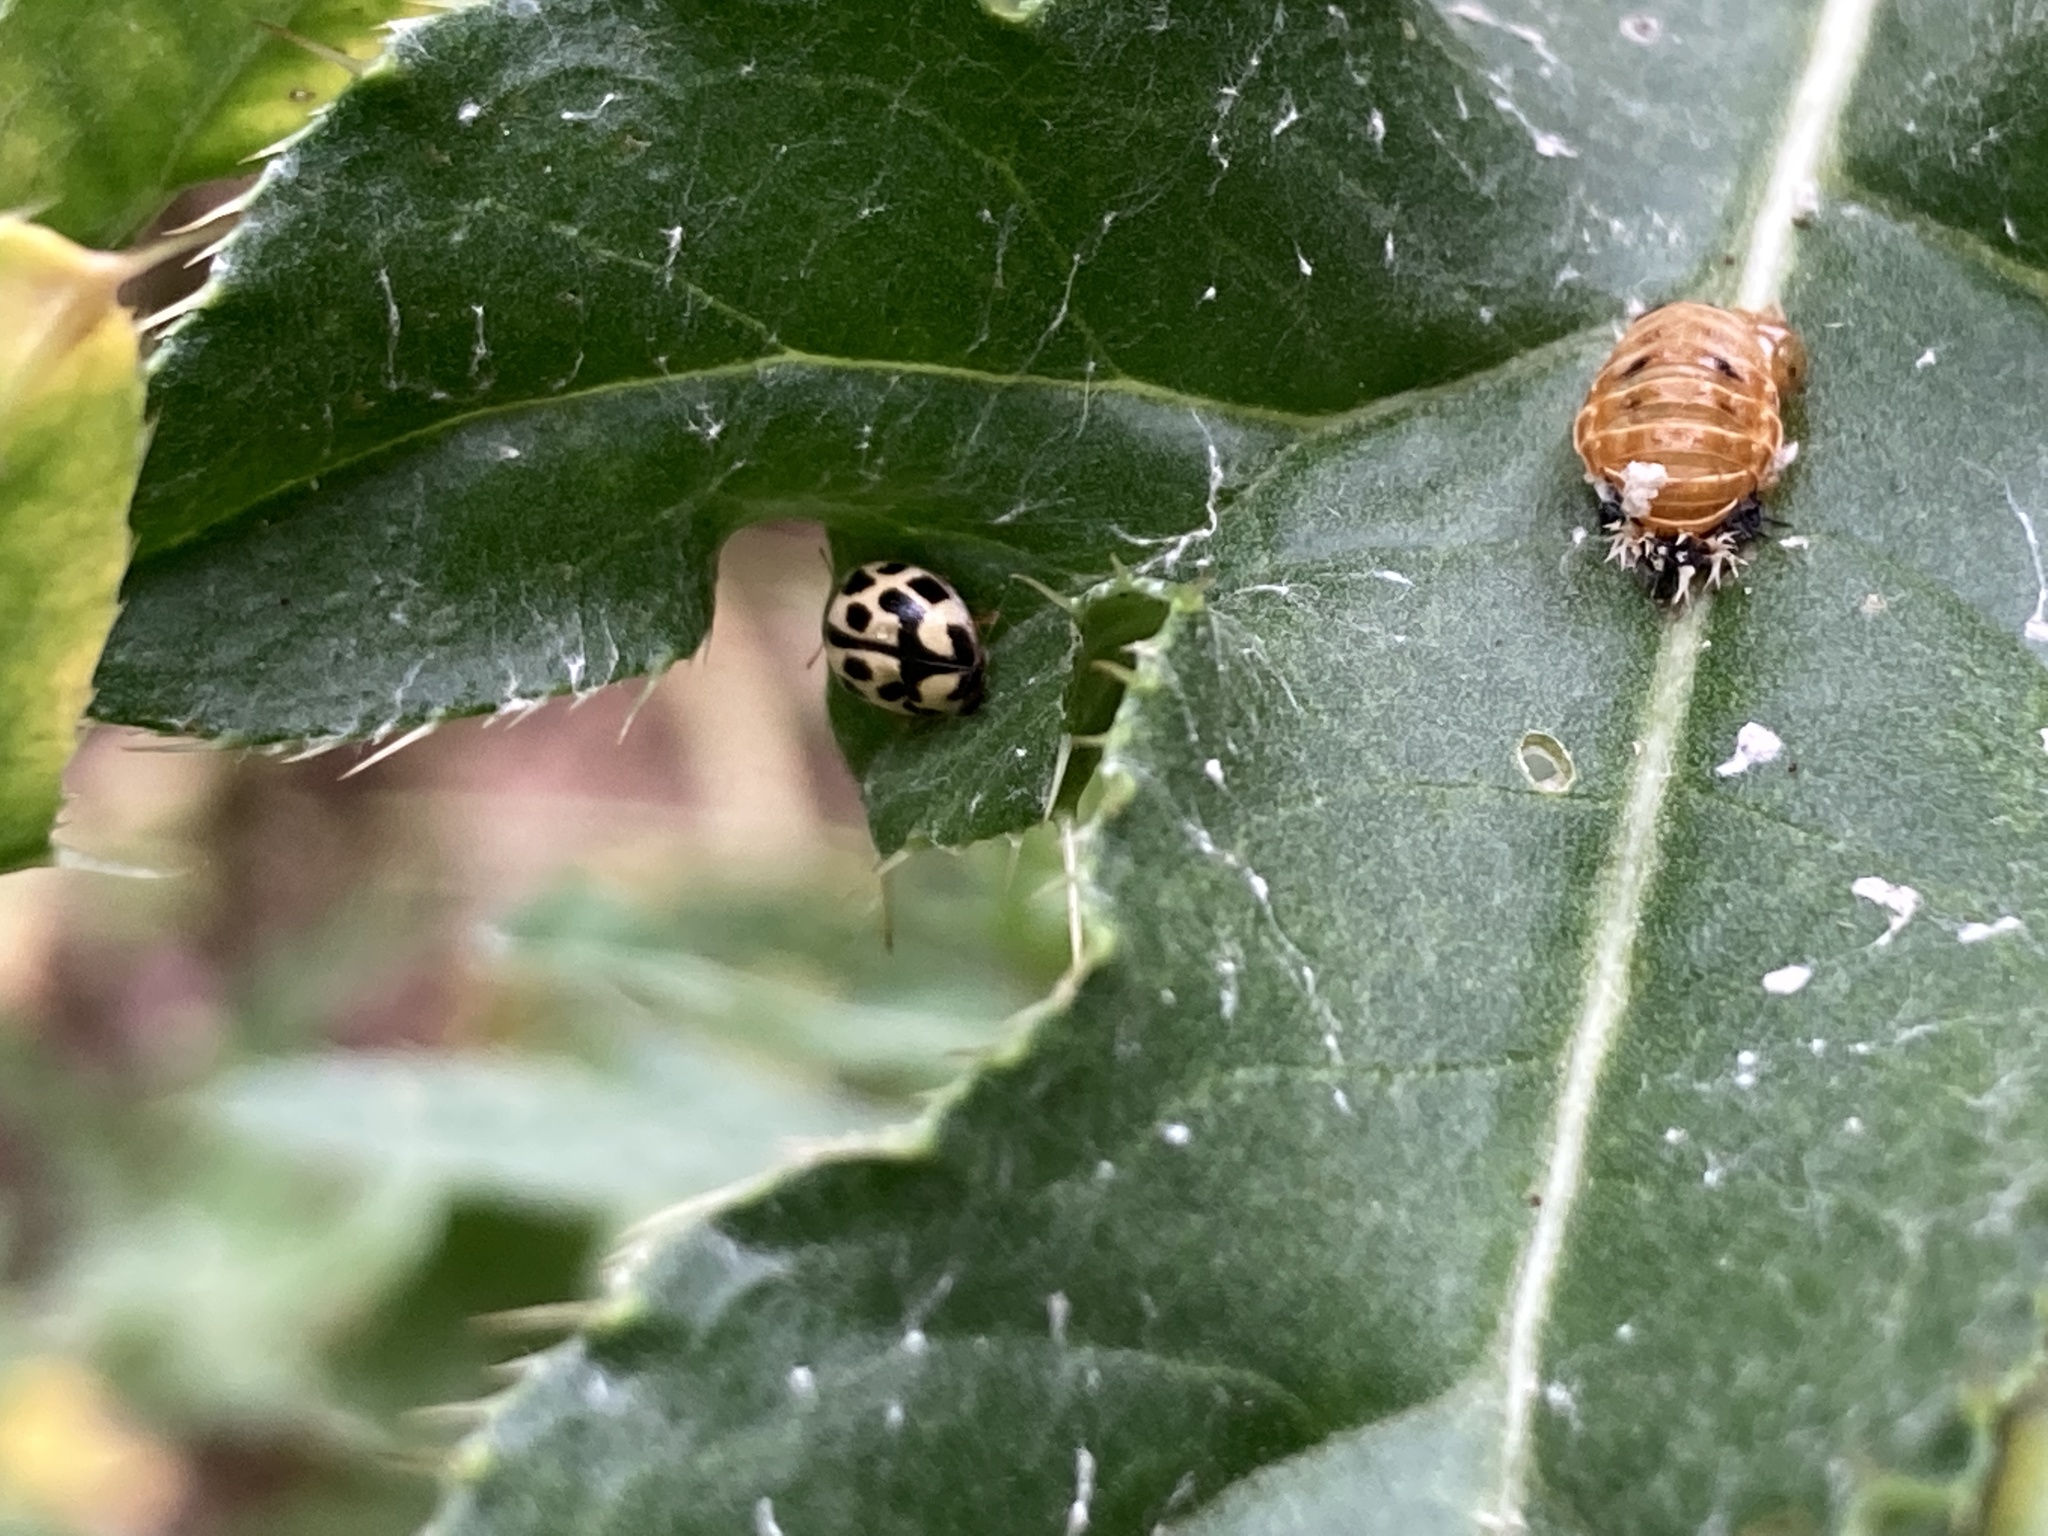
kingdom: Animalia
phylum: Arthropoda
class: Insecta
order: Coleoptera
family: Coccinellidae
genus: Propylaea
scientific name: Propylaea quatuordecimpunctata
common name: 14-spotted ladybird beetle
